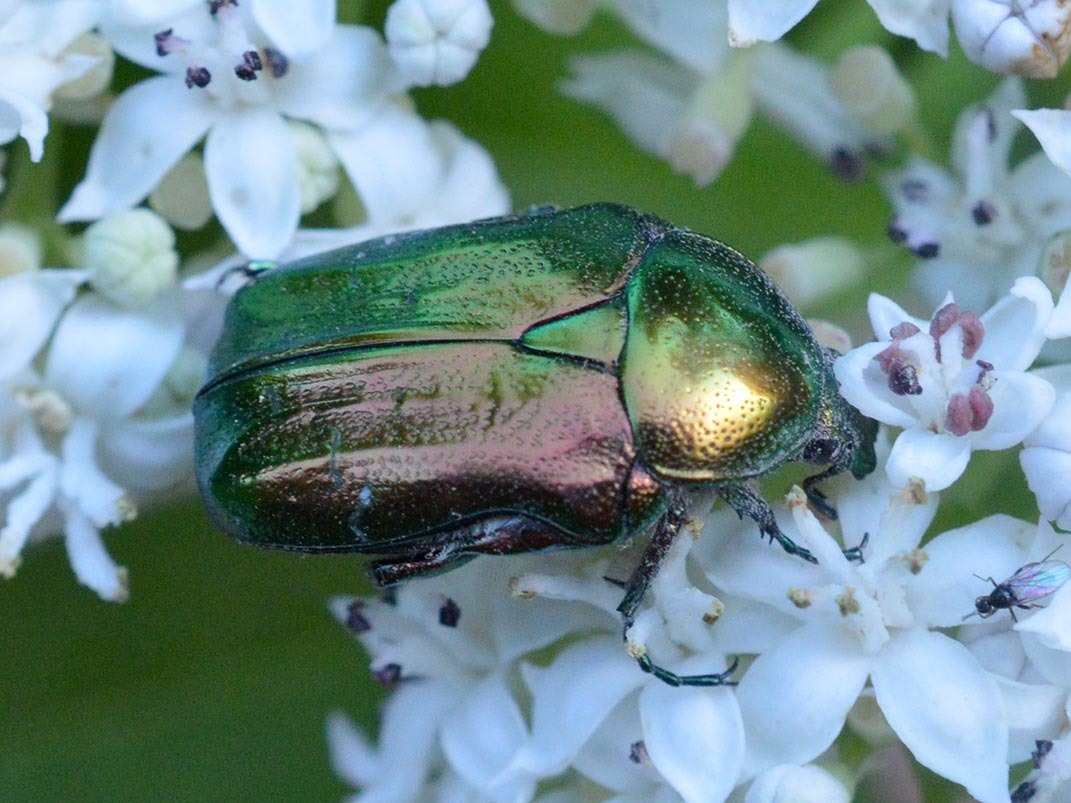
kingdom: Animalia
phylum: Arthropoda
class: Insecta
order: Coleoptera
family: Scarabaeidae
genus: Cetonia
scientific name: Cetonia aurata
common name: Rose chafer
